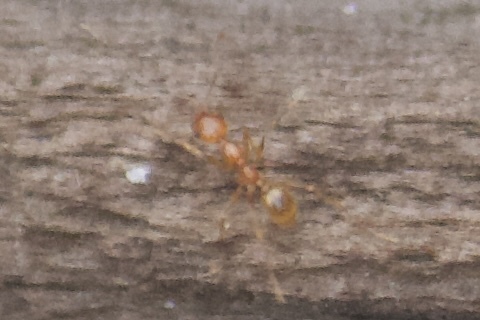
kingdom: Animalia
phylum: Arthropoda
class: Insecta
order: Hymenoptera
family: Formicidae
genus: Pheidole
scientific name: Pheidole hyatti
